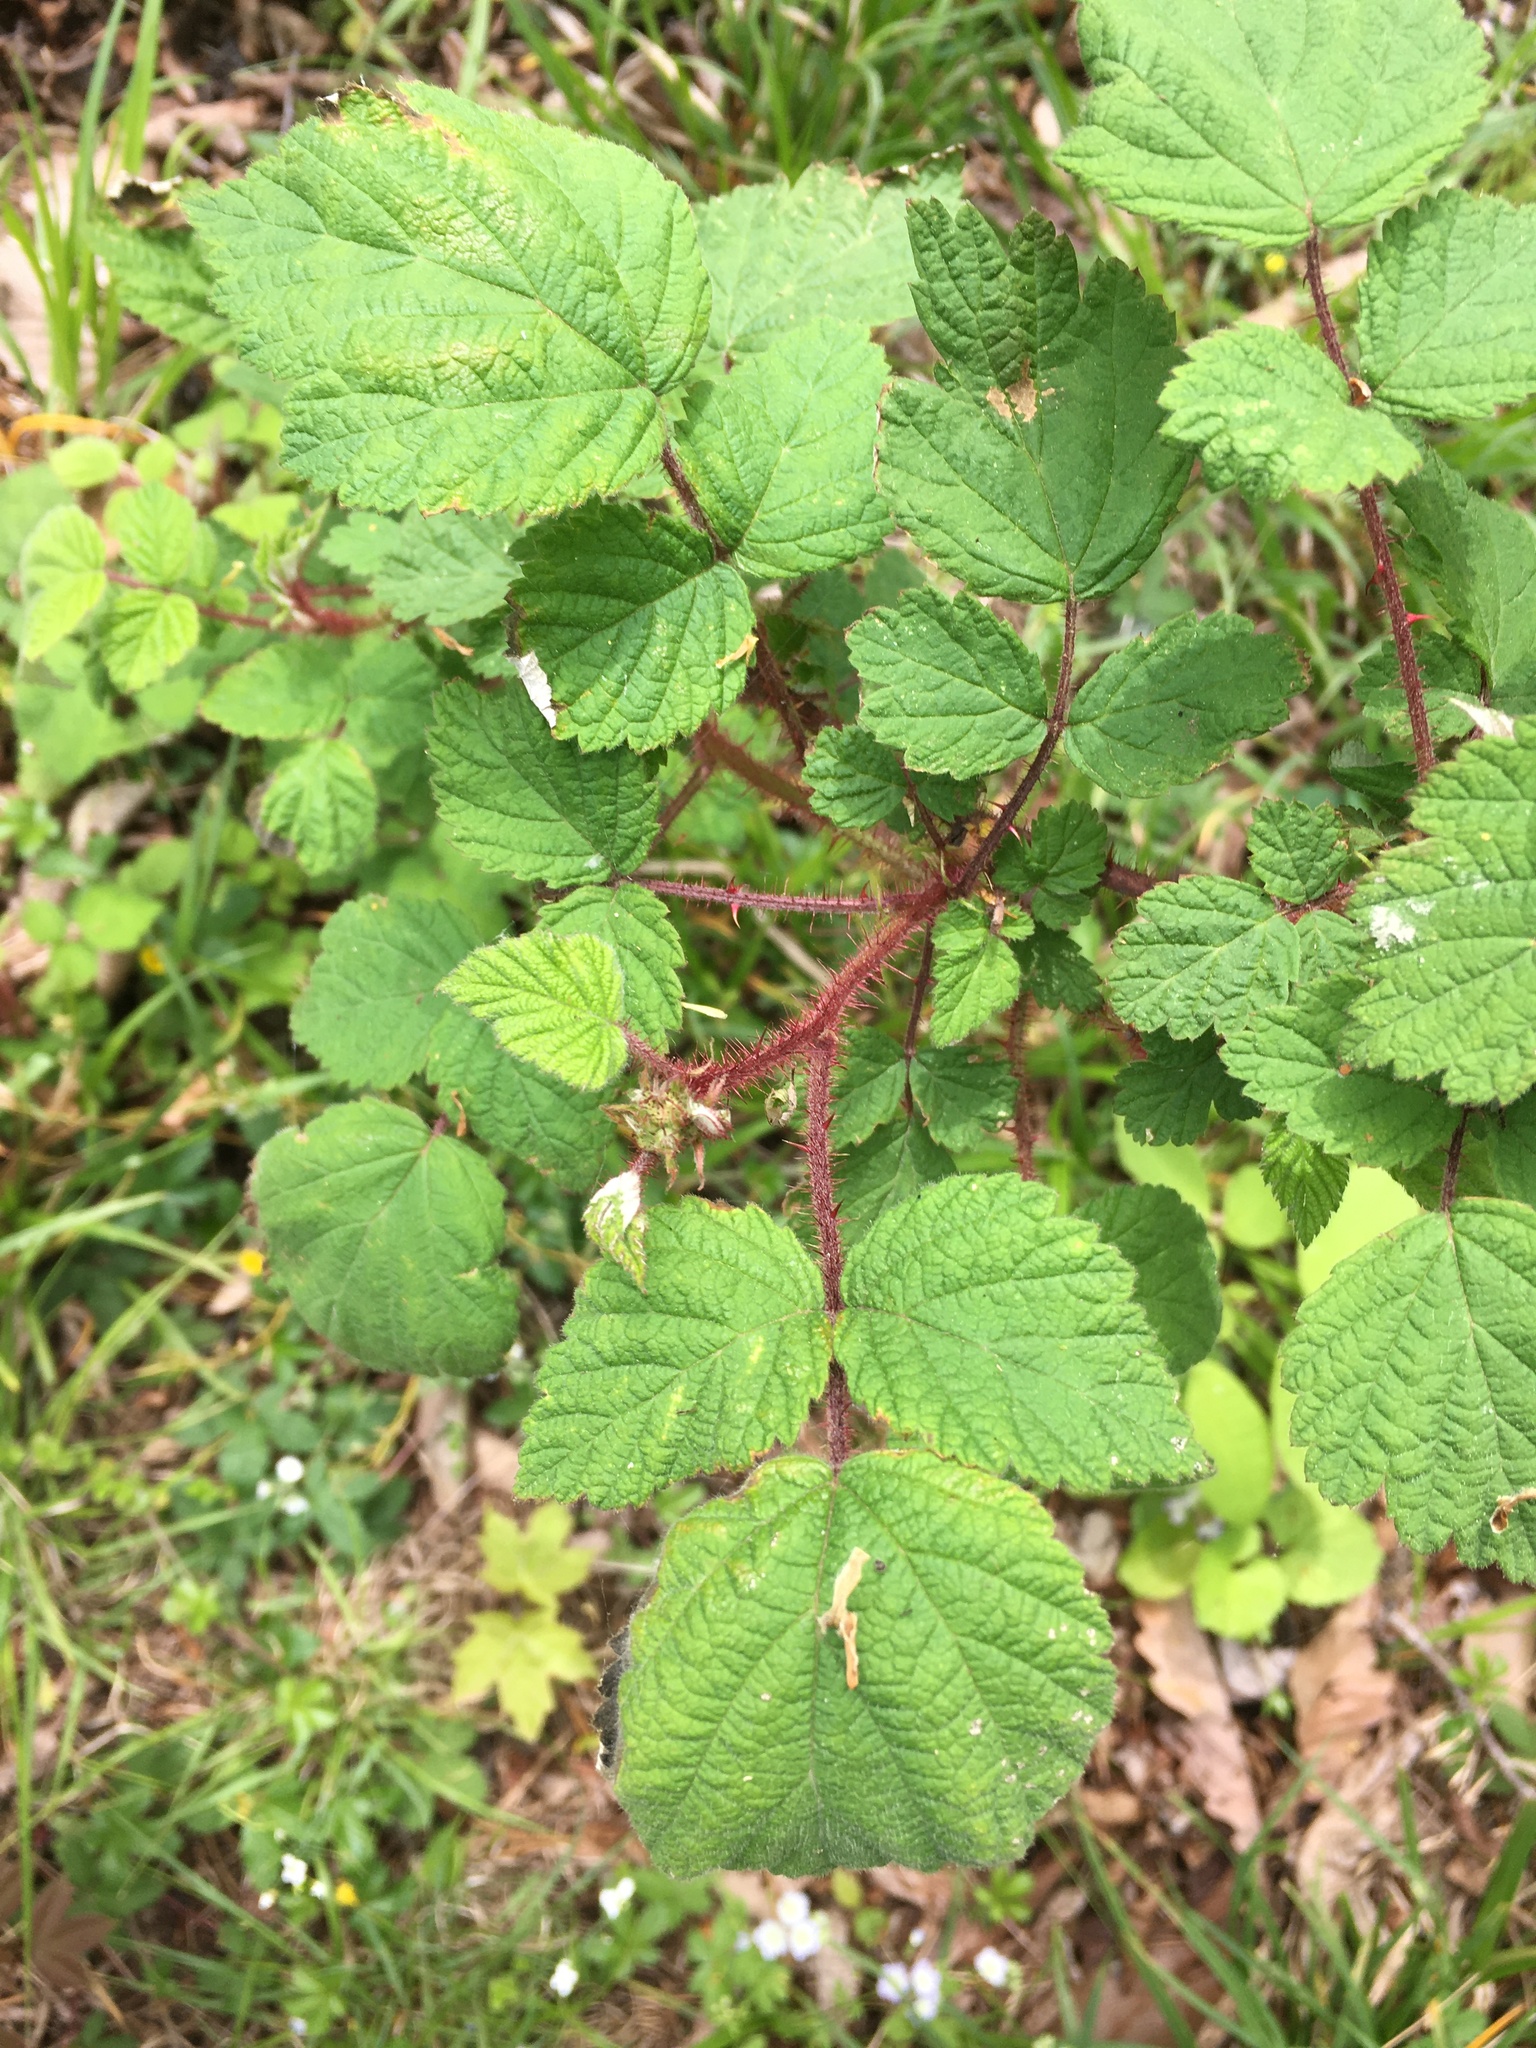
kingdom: Plantae
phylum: Tracheophyta
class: Magnoliopsida
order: Rosales
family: Rosaceae
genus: Rubus
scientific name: Rubus phoenicolasius
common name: Japanese wineberry
